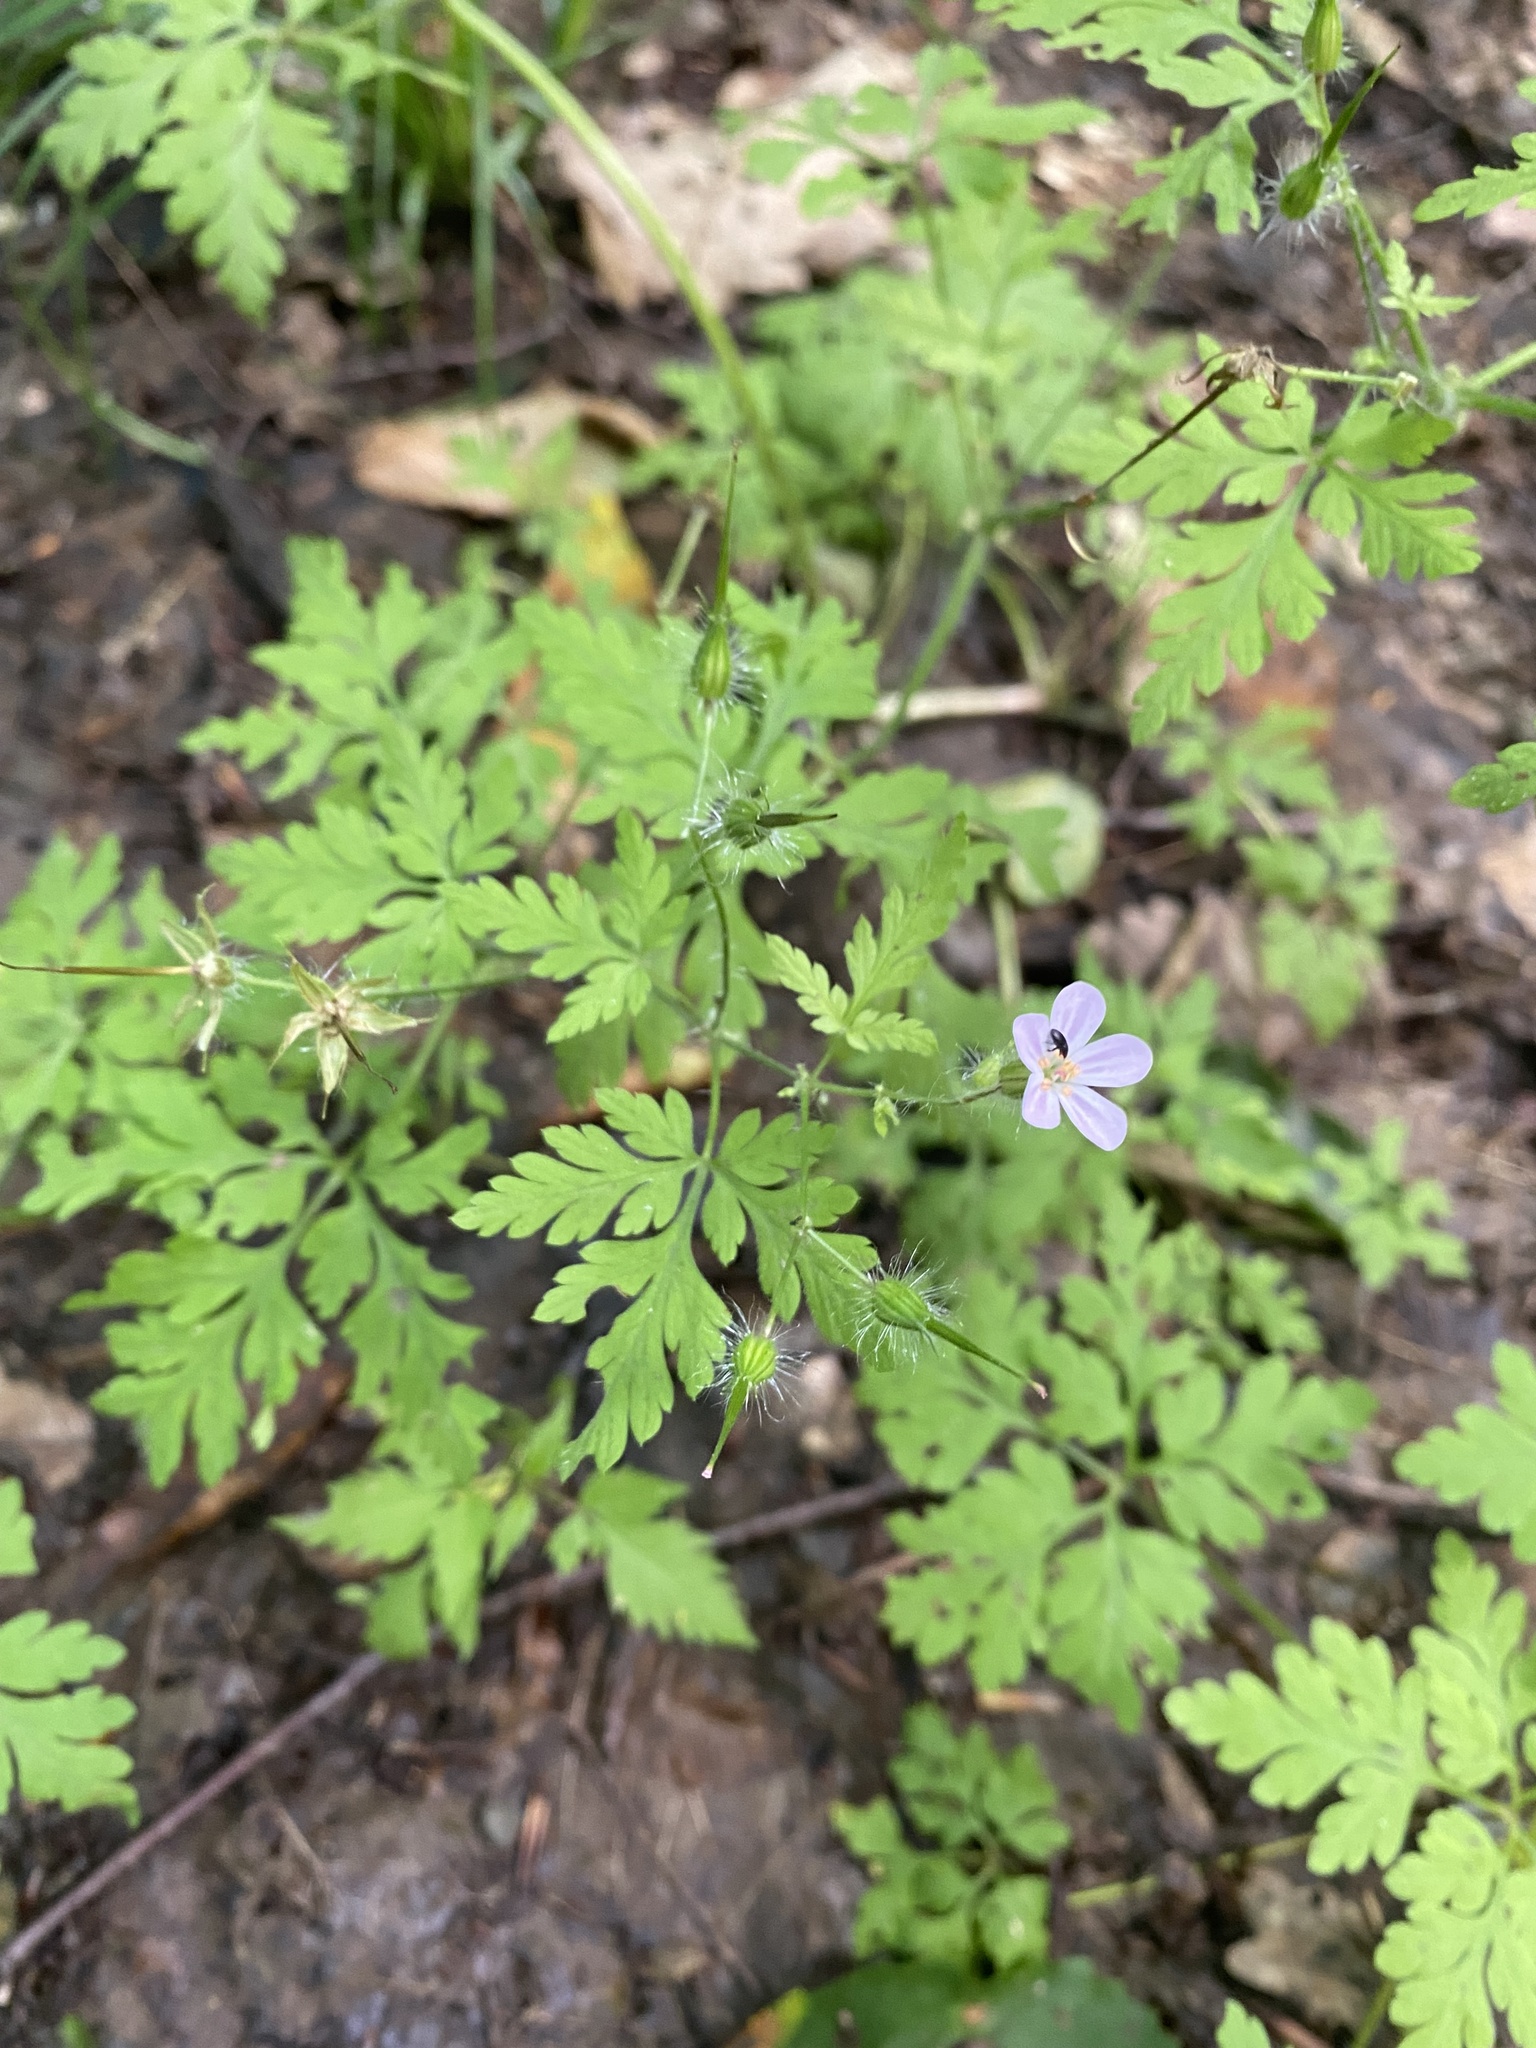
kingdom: Plantae
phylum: Tracheophyta
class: Magnoliopsida
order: Geraniales
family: Geraniaceae
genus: Geranium
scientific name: Geranium robertianum
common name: Herb-robert
